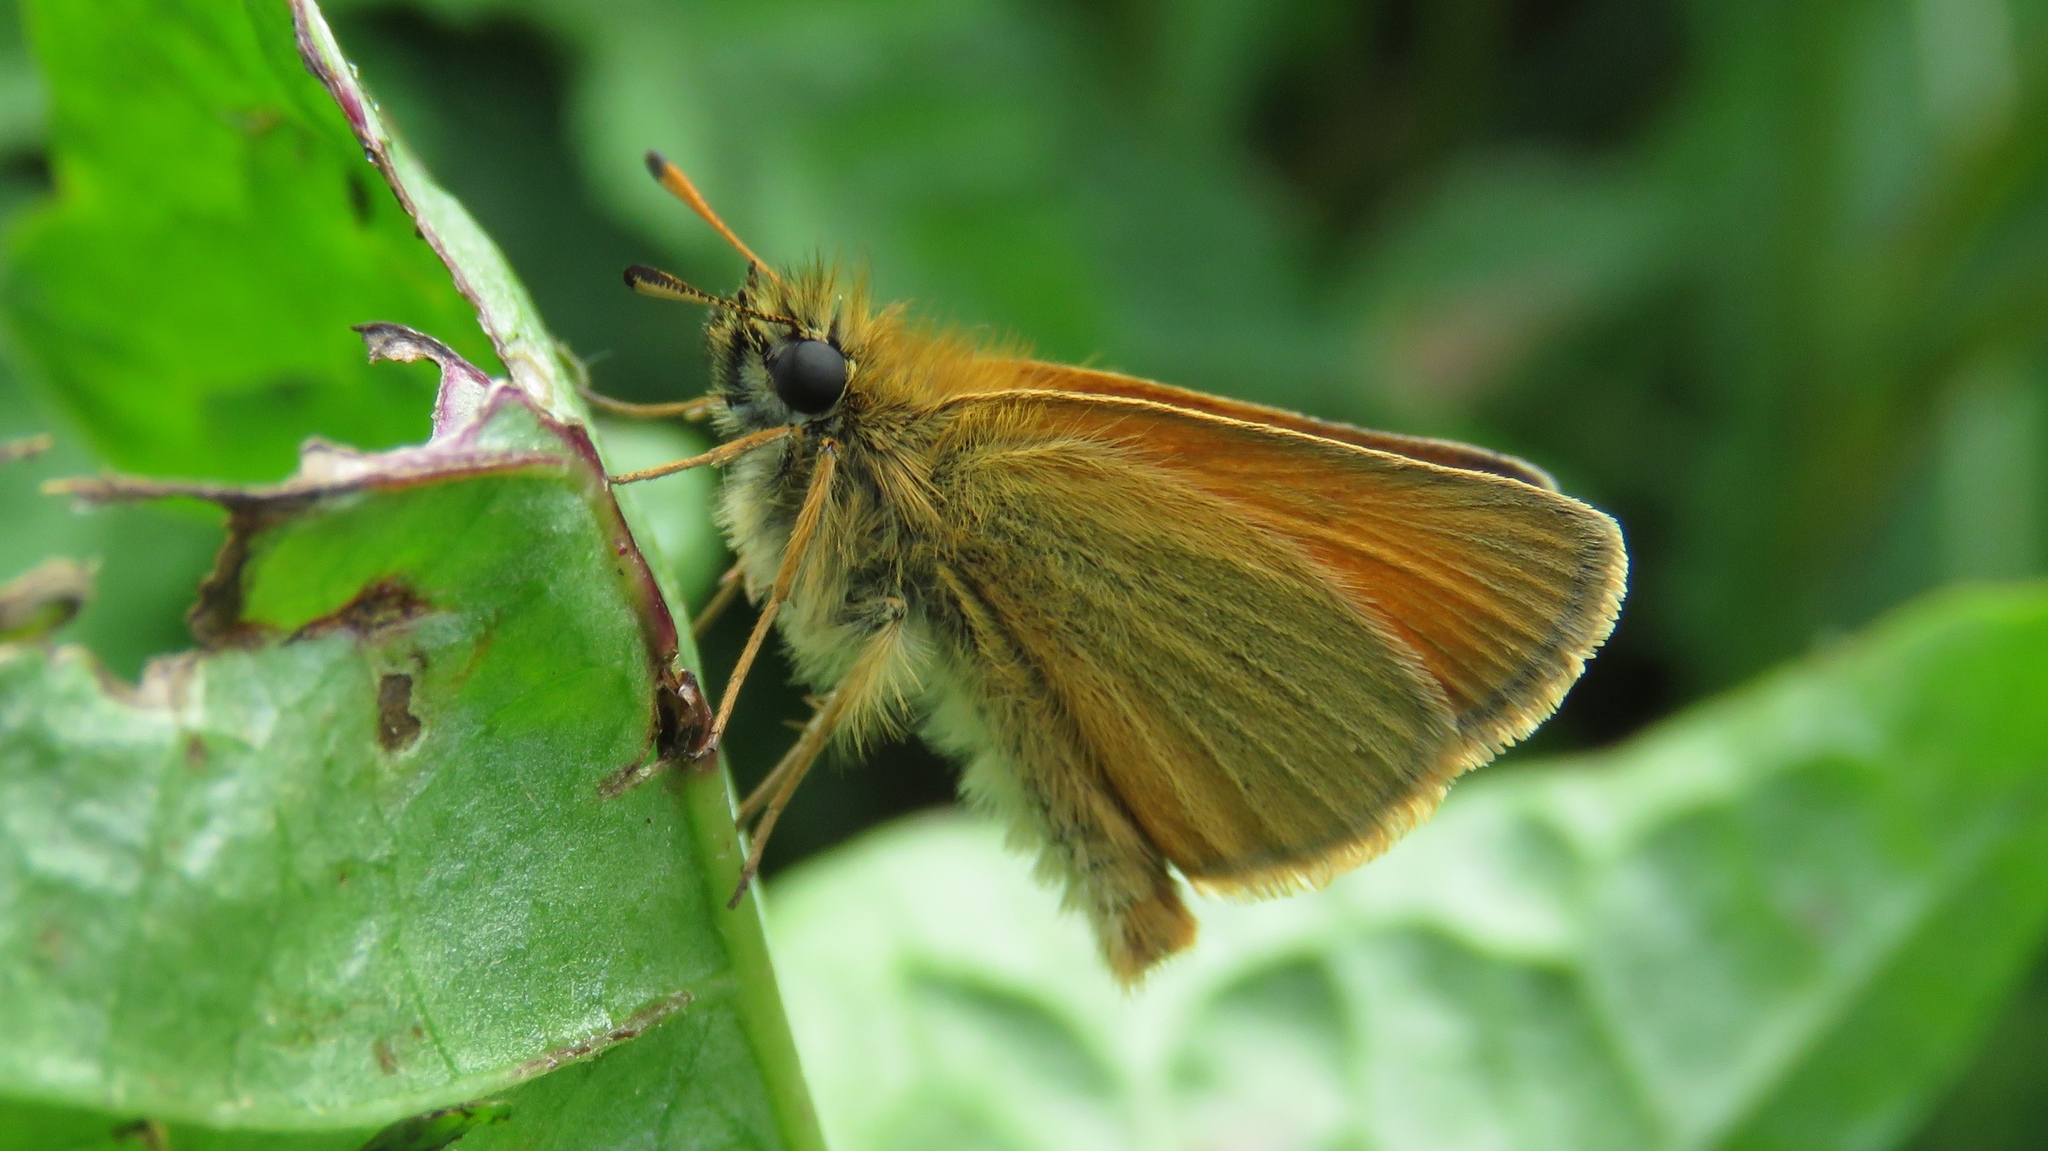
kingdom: Animalia
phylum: Arthropoda
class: Insecta
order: Lepidoptera
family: Hesperiidae
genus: Thymelicus
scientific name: Thymelicus lineola
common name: Essex skipper
